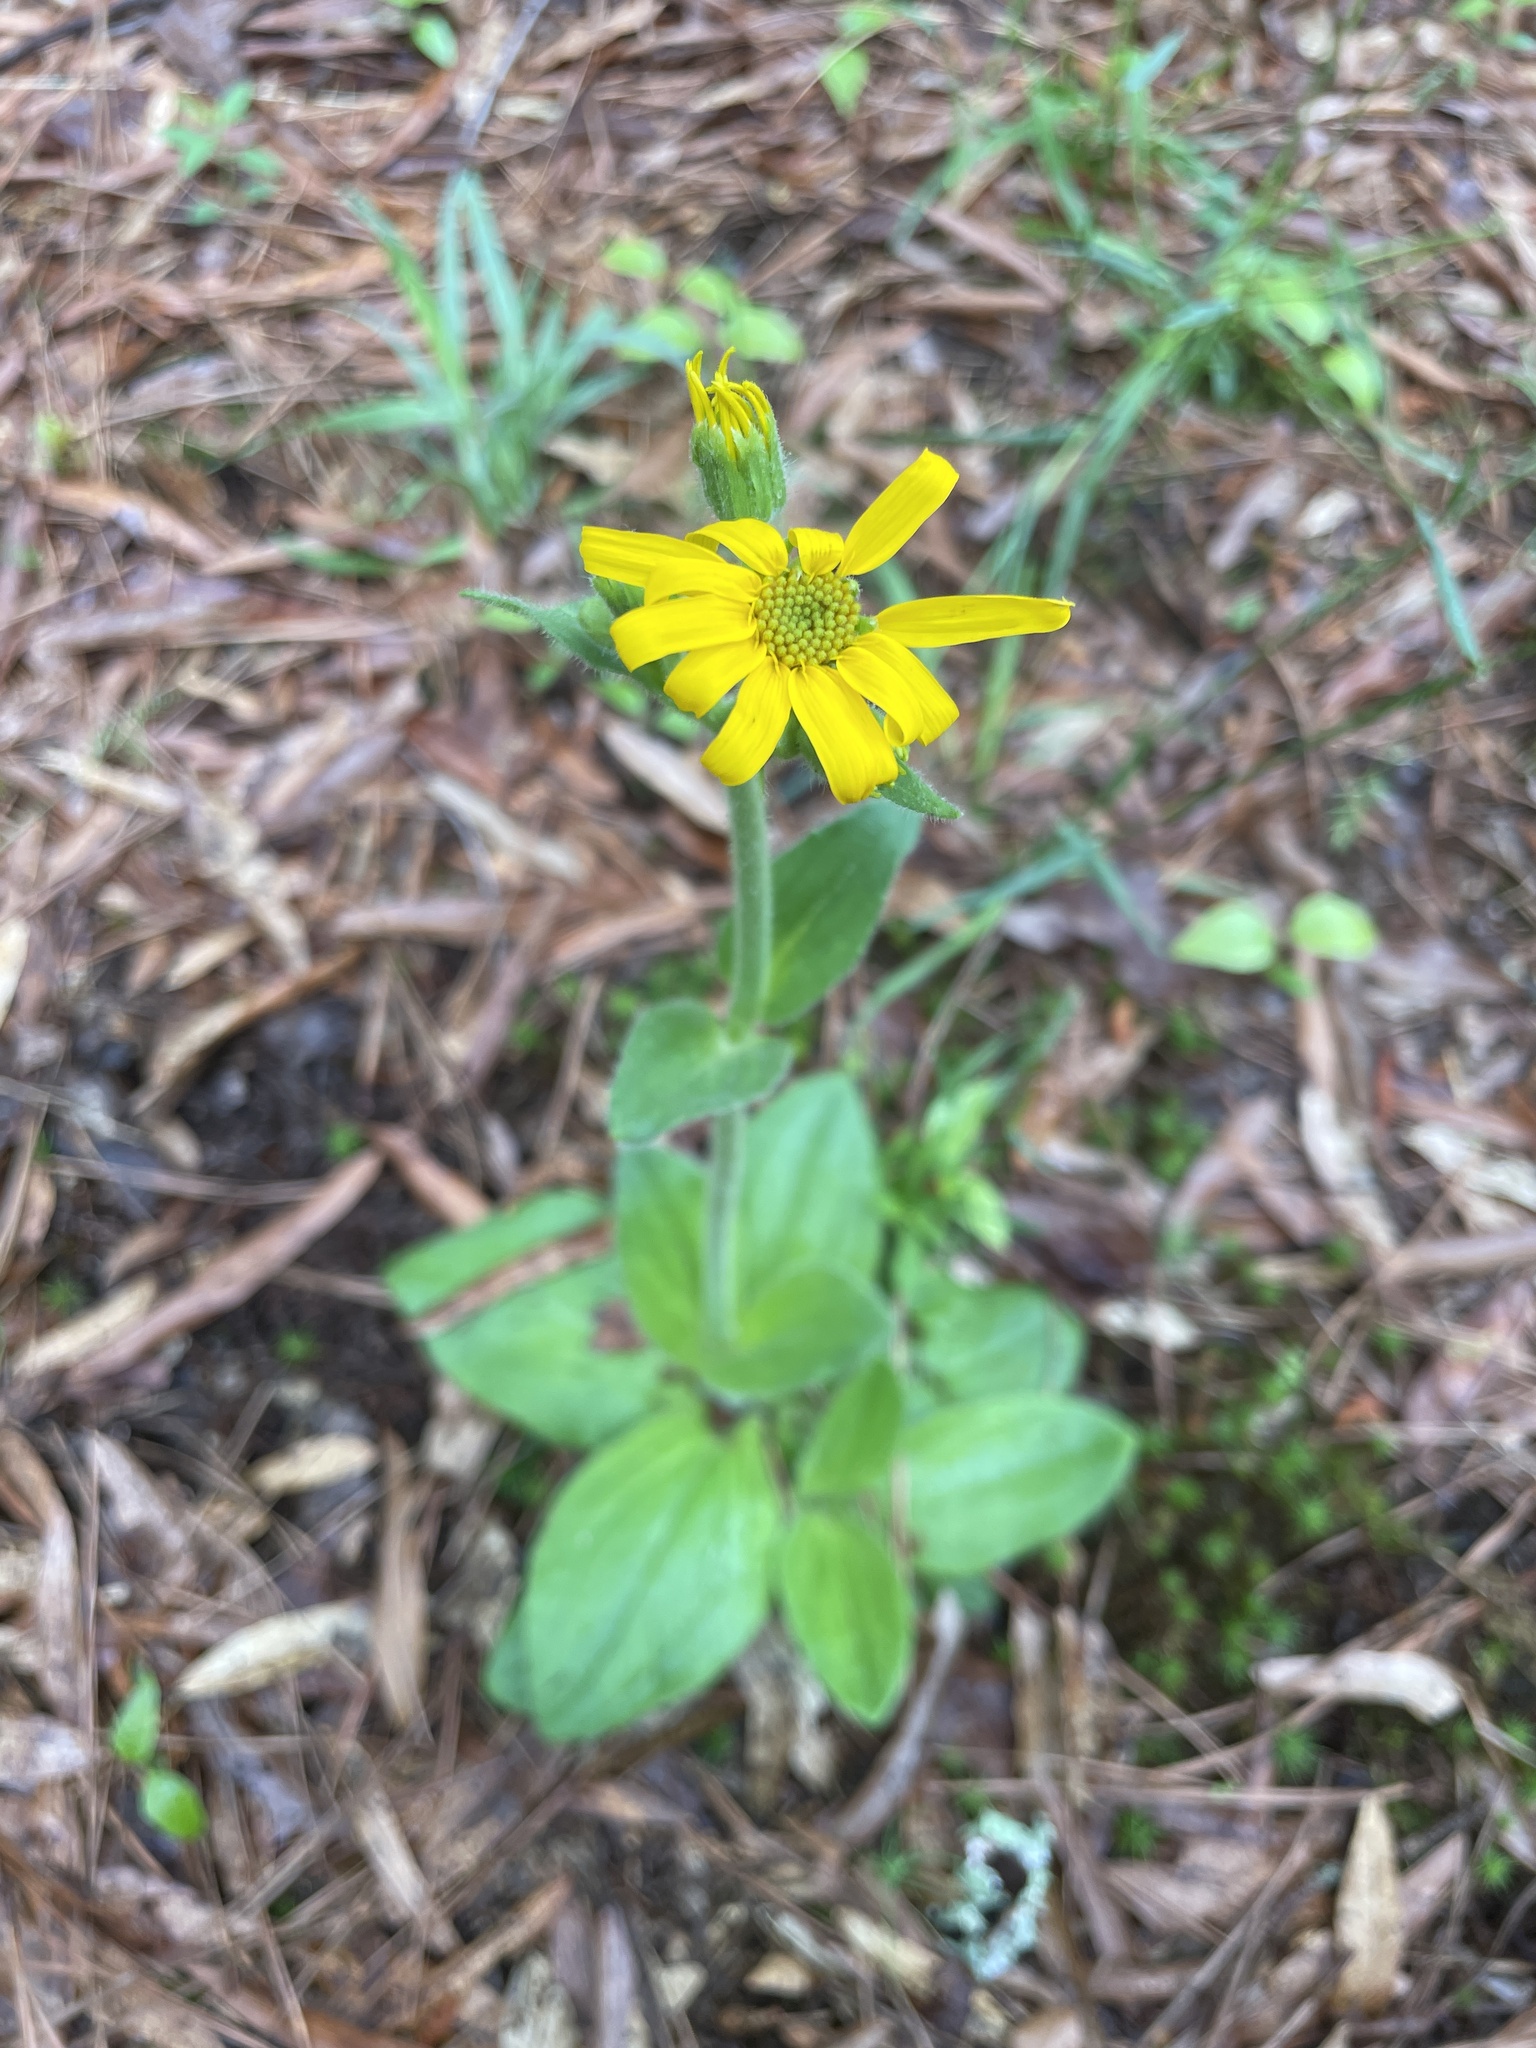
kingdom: Plantae
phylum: Tracheophyta
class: Magnoliopsida
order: Asterales
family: Asteraceae
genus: Arnica
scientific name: Arnica acaulis
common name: Common leopardbane
